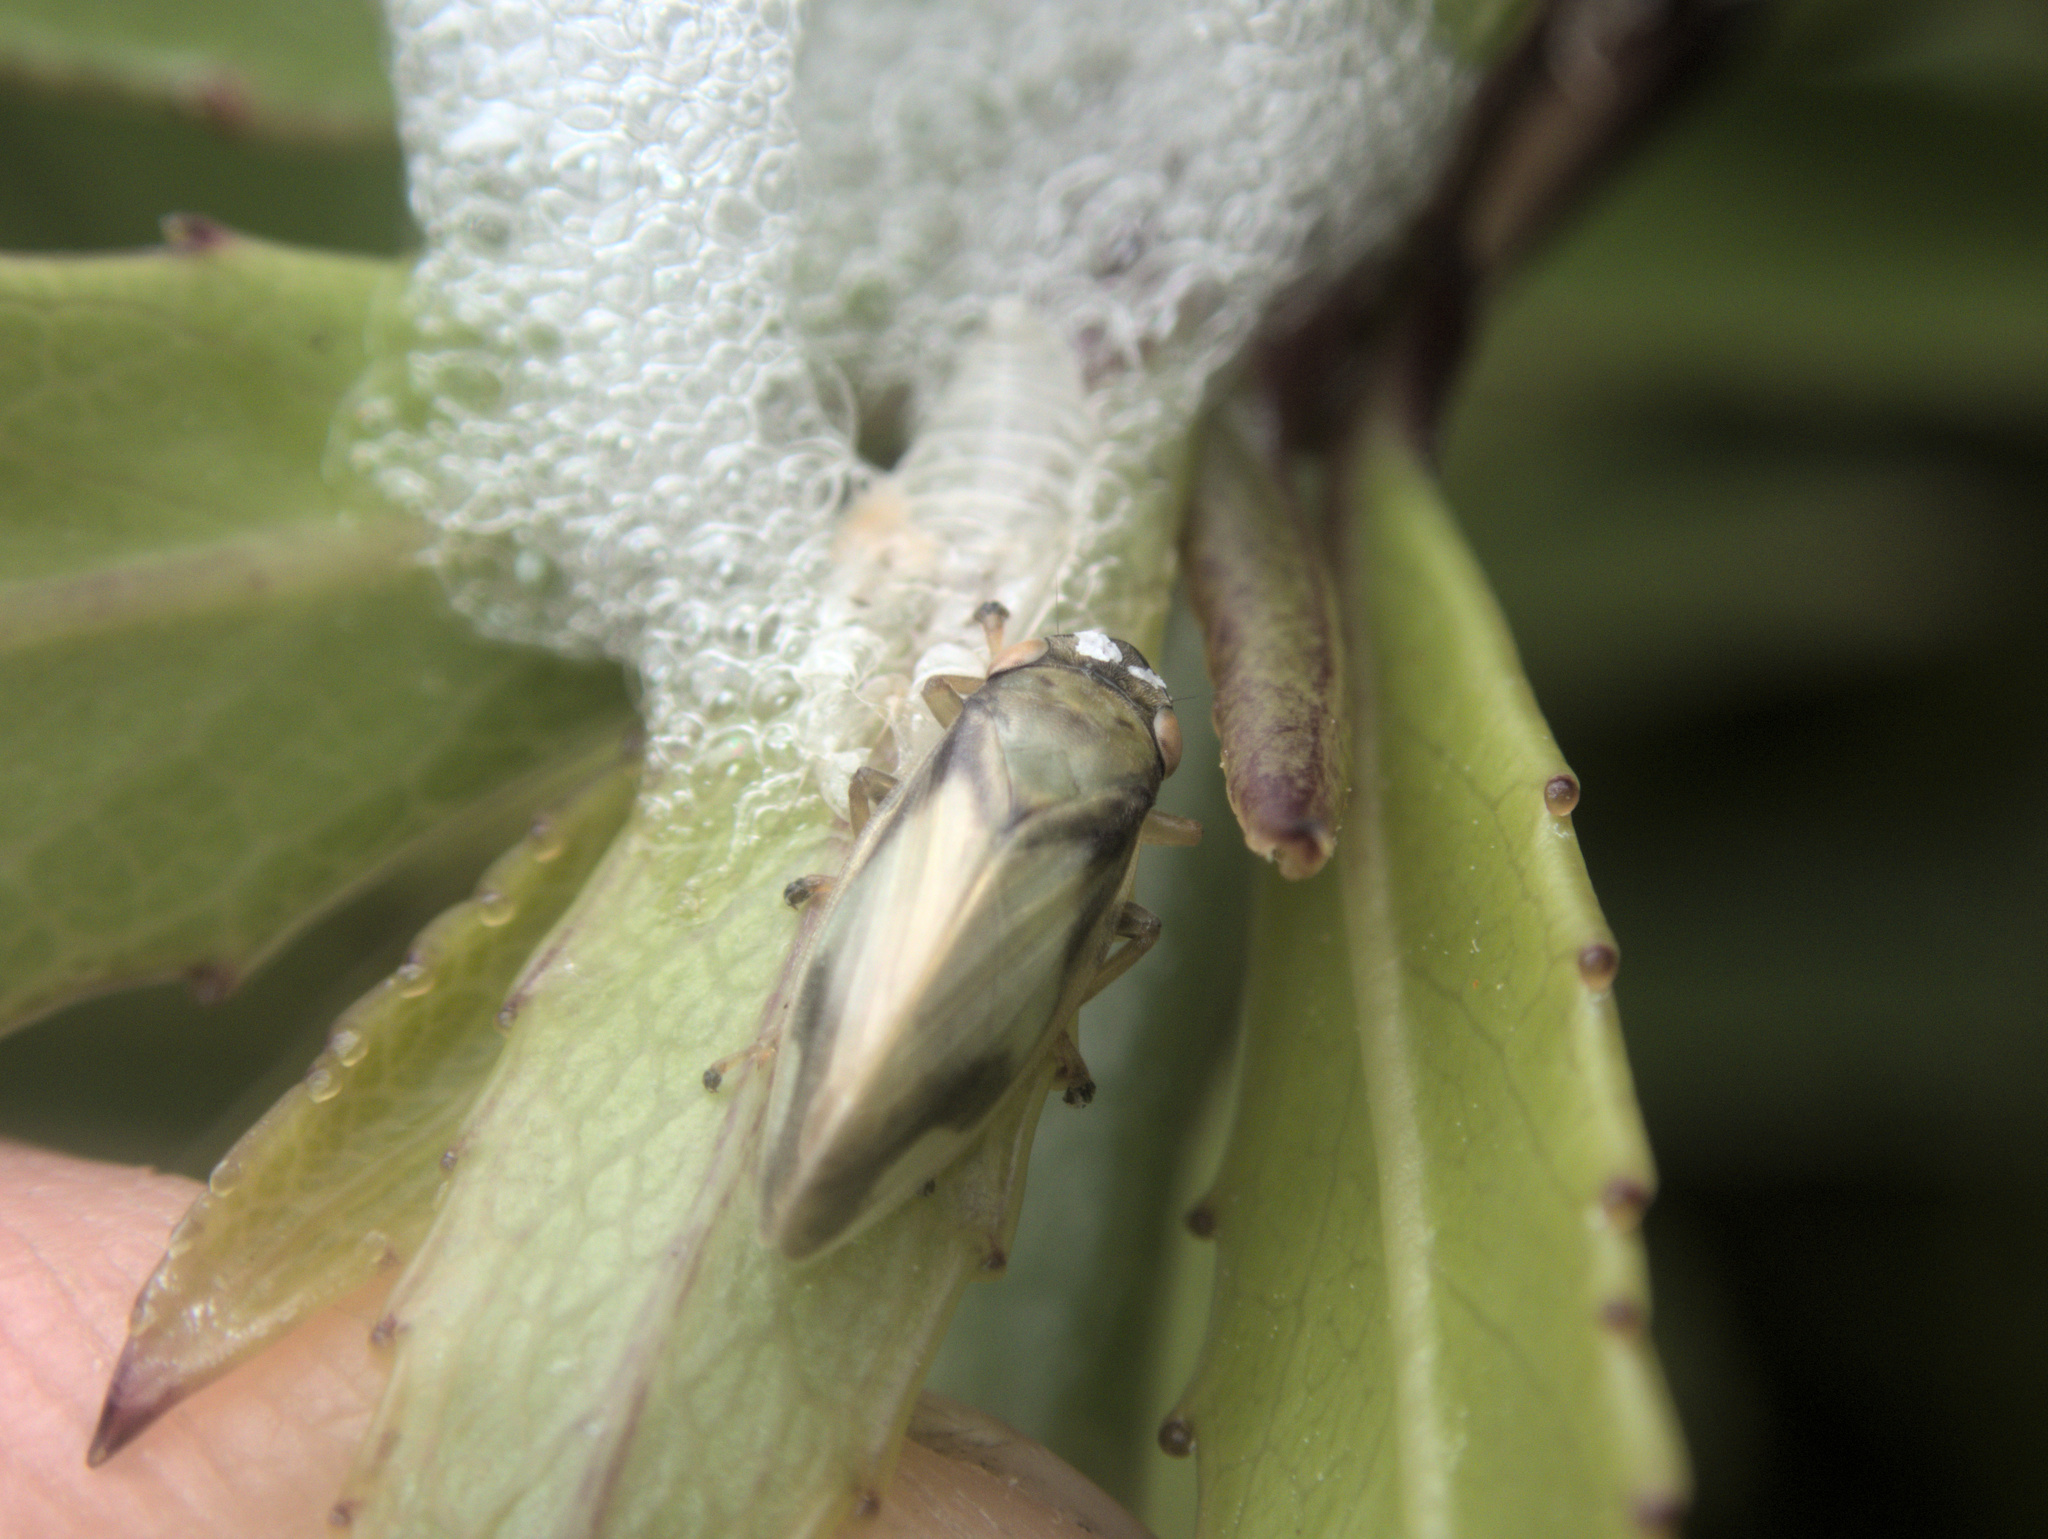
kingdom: Animalia
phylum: Arthropoda
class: Insecta
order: Hemiptera
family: Aphrophoridae
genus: Carystoterpa
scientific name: Carystoterpa tristis
